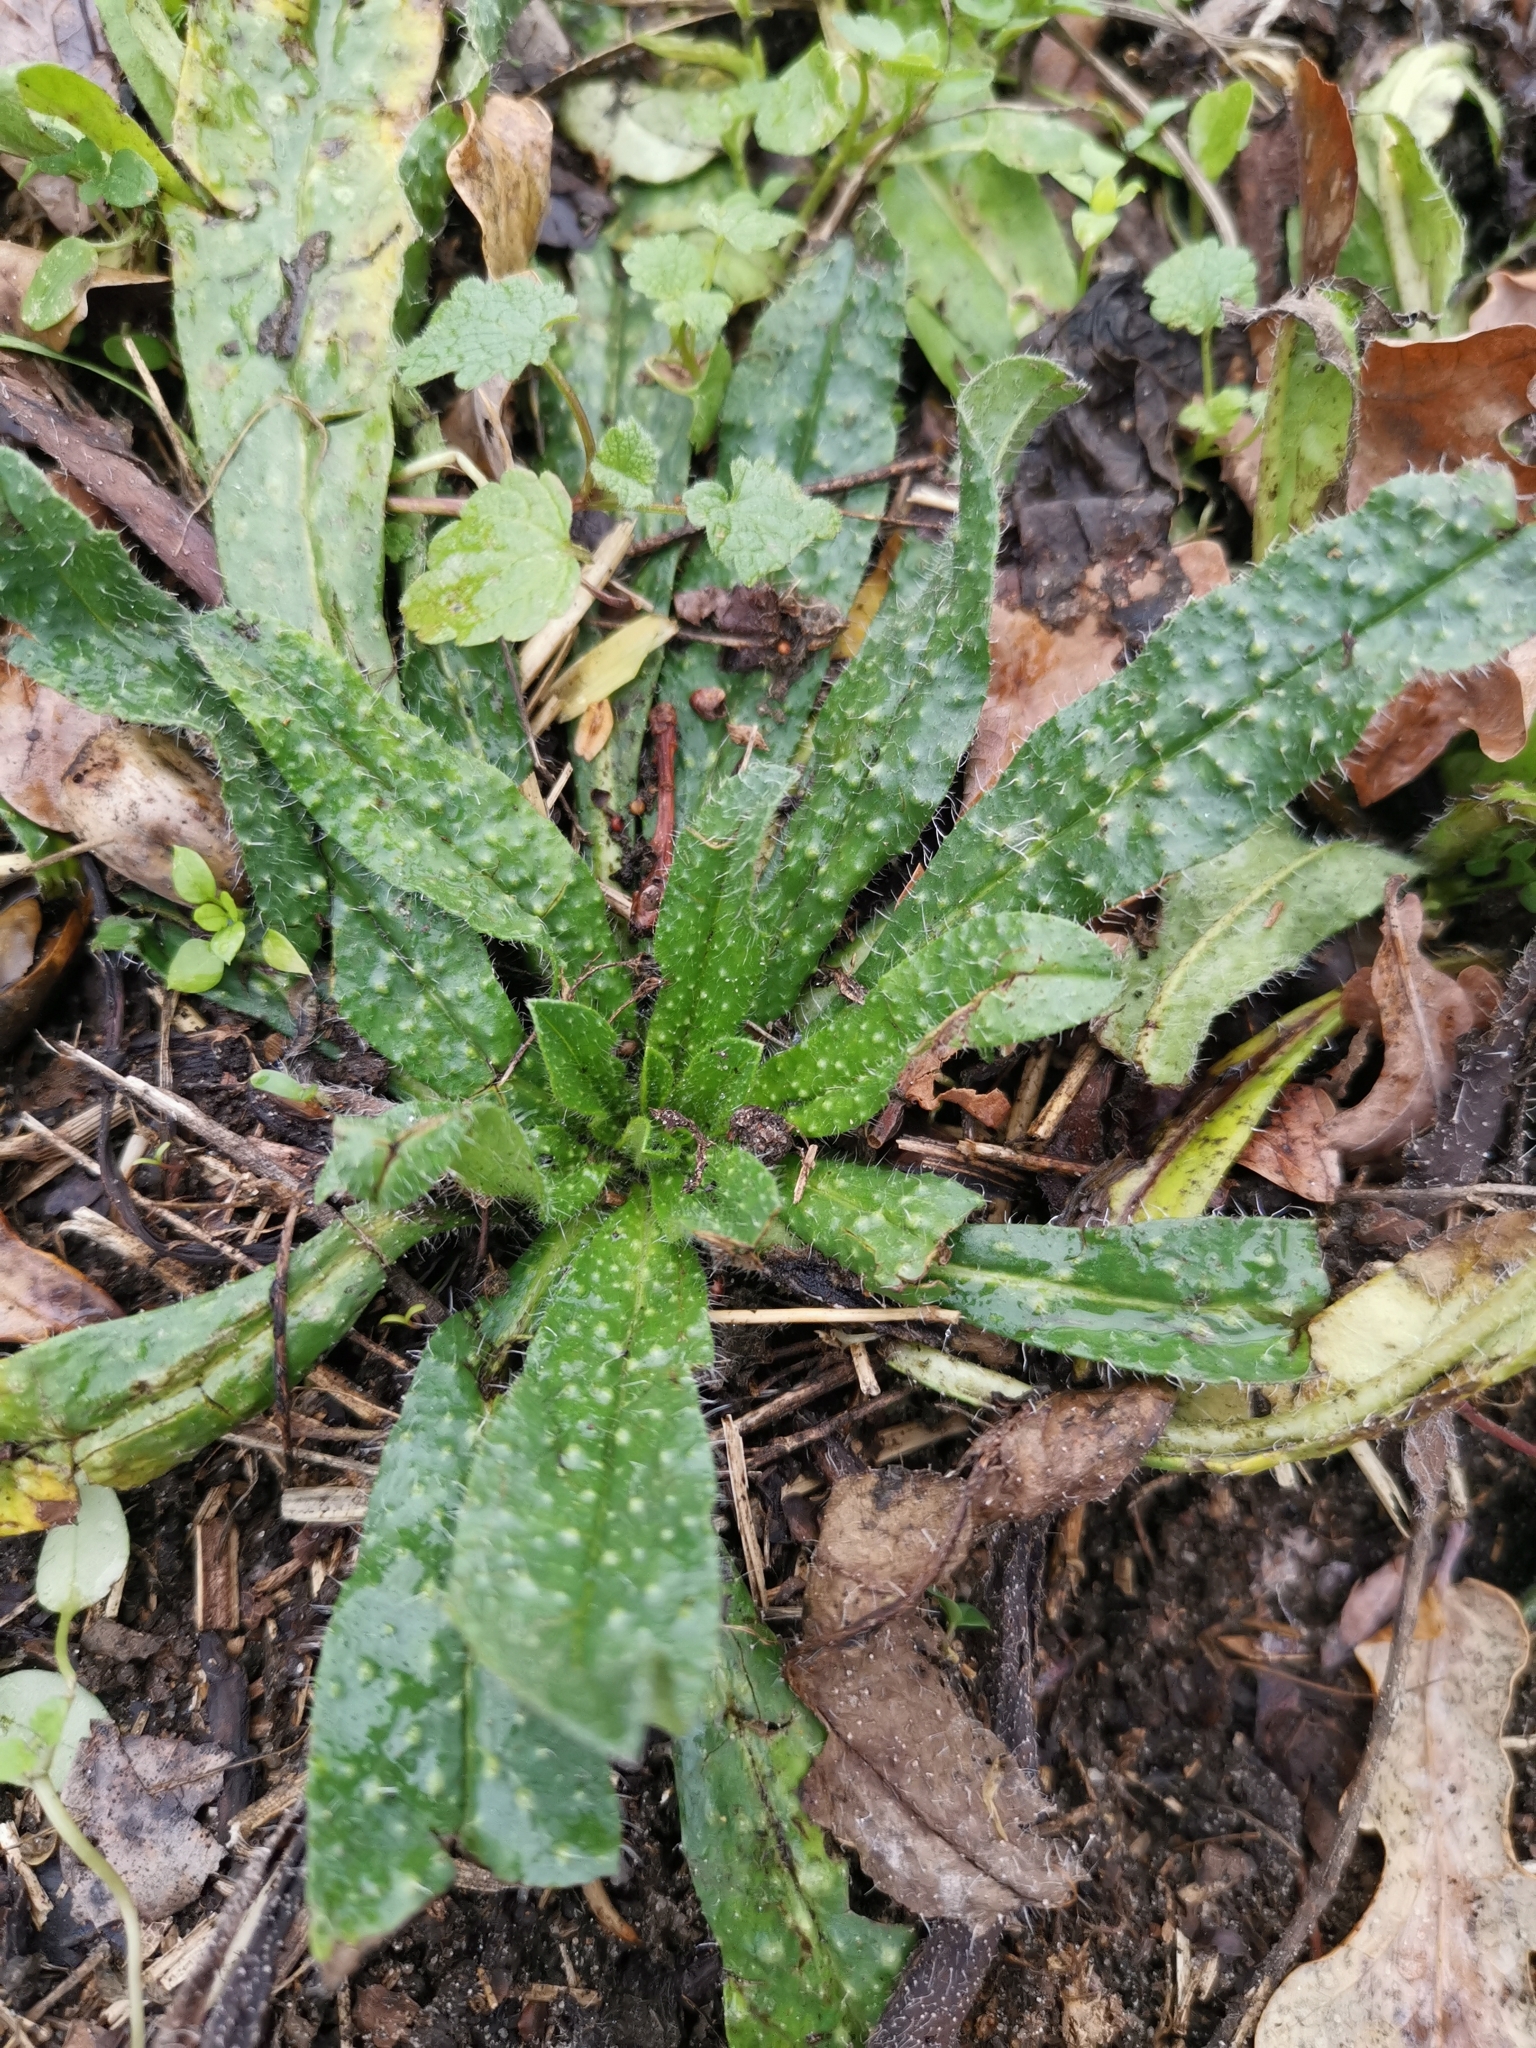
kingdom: Plantae
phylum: Tracheophyta
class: Magnoliopsida
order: Boraginales
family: Boraginaceae
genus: Echium
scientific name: Echium vulgare
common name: Common viper's bugloss
